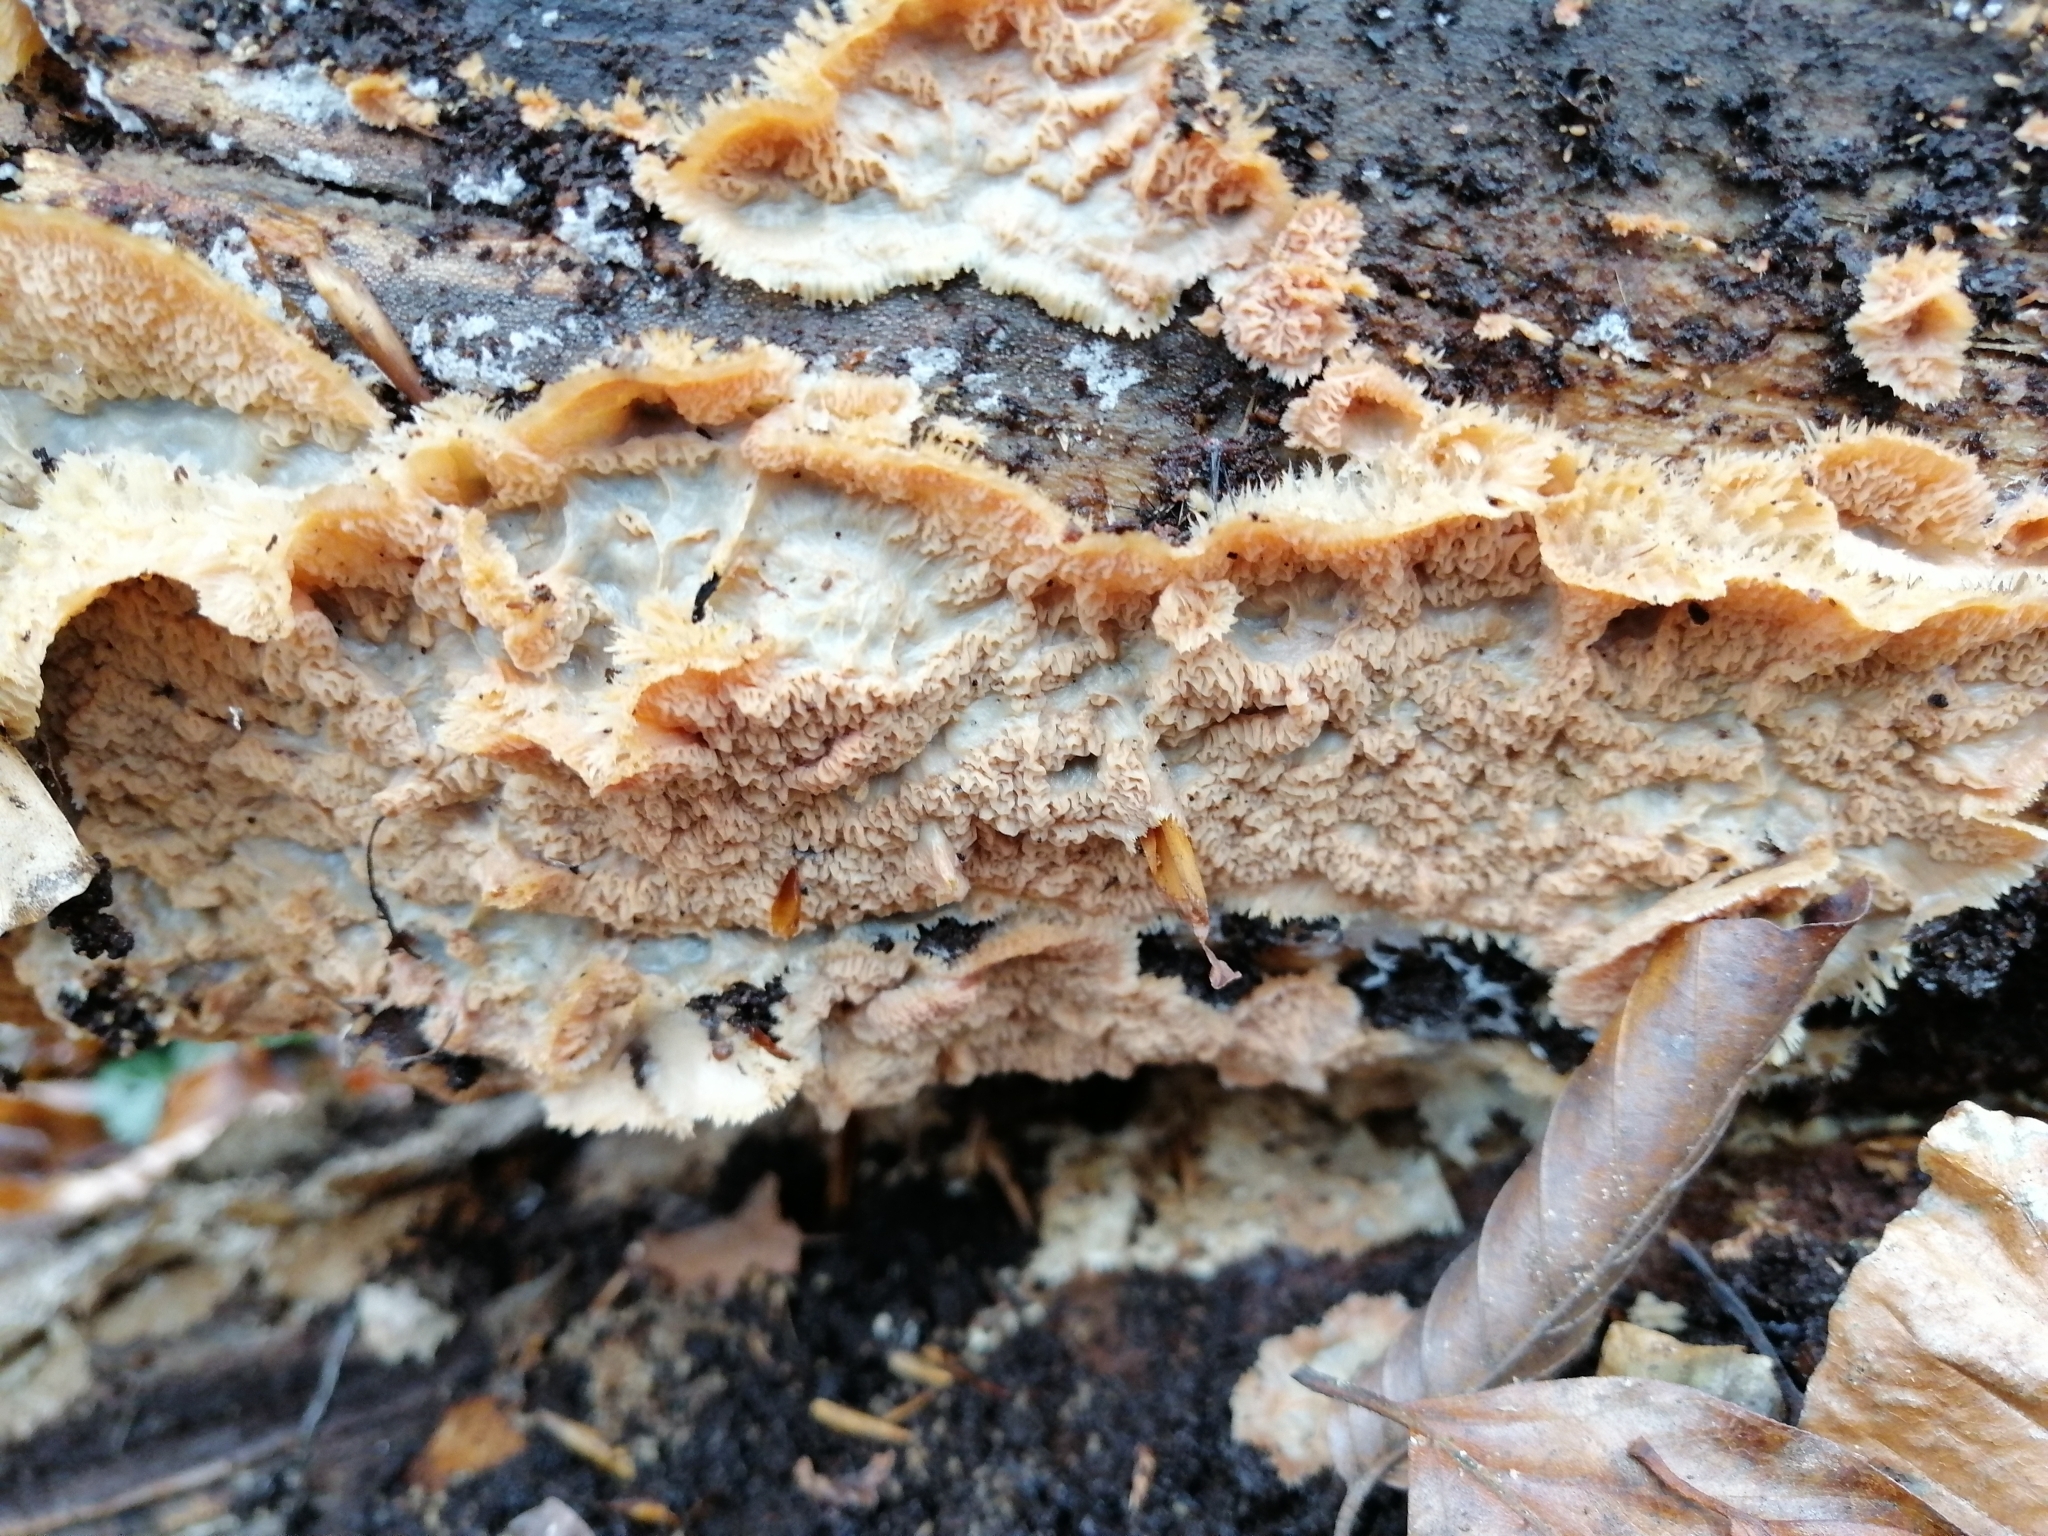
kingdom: Fungi
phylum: Basidiomycota
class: Agaricomycetes
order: Polyporales
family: Meruliaceae
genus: Phlebia
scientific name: Phlebia tremellosa
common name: Jelly rot
